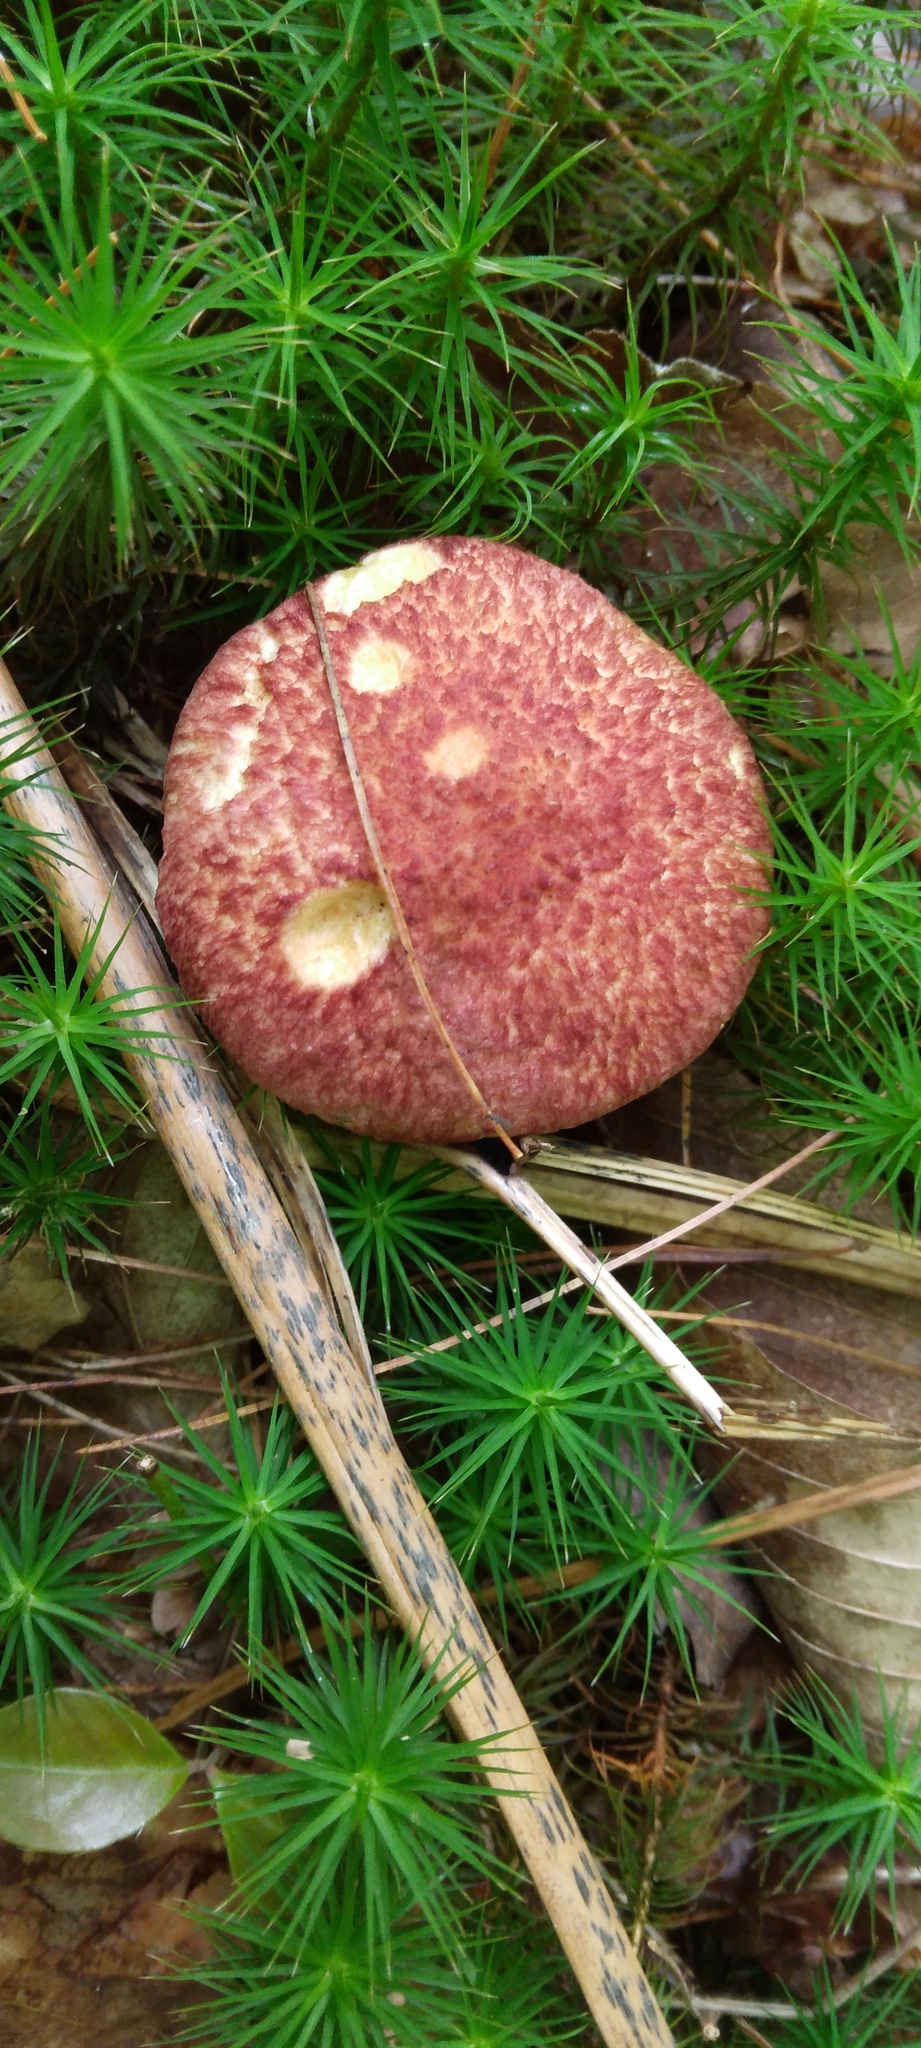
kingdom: Fungi
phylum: Basidiomycota
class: Agaricomycetes
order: Boletales
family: Suillaceae
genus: Suillus
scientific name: Suillus spraguei
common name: Painted suillus
